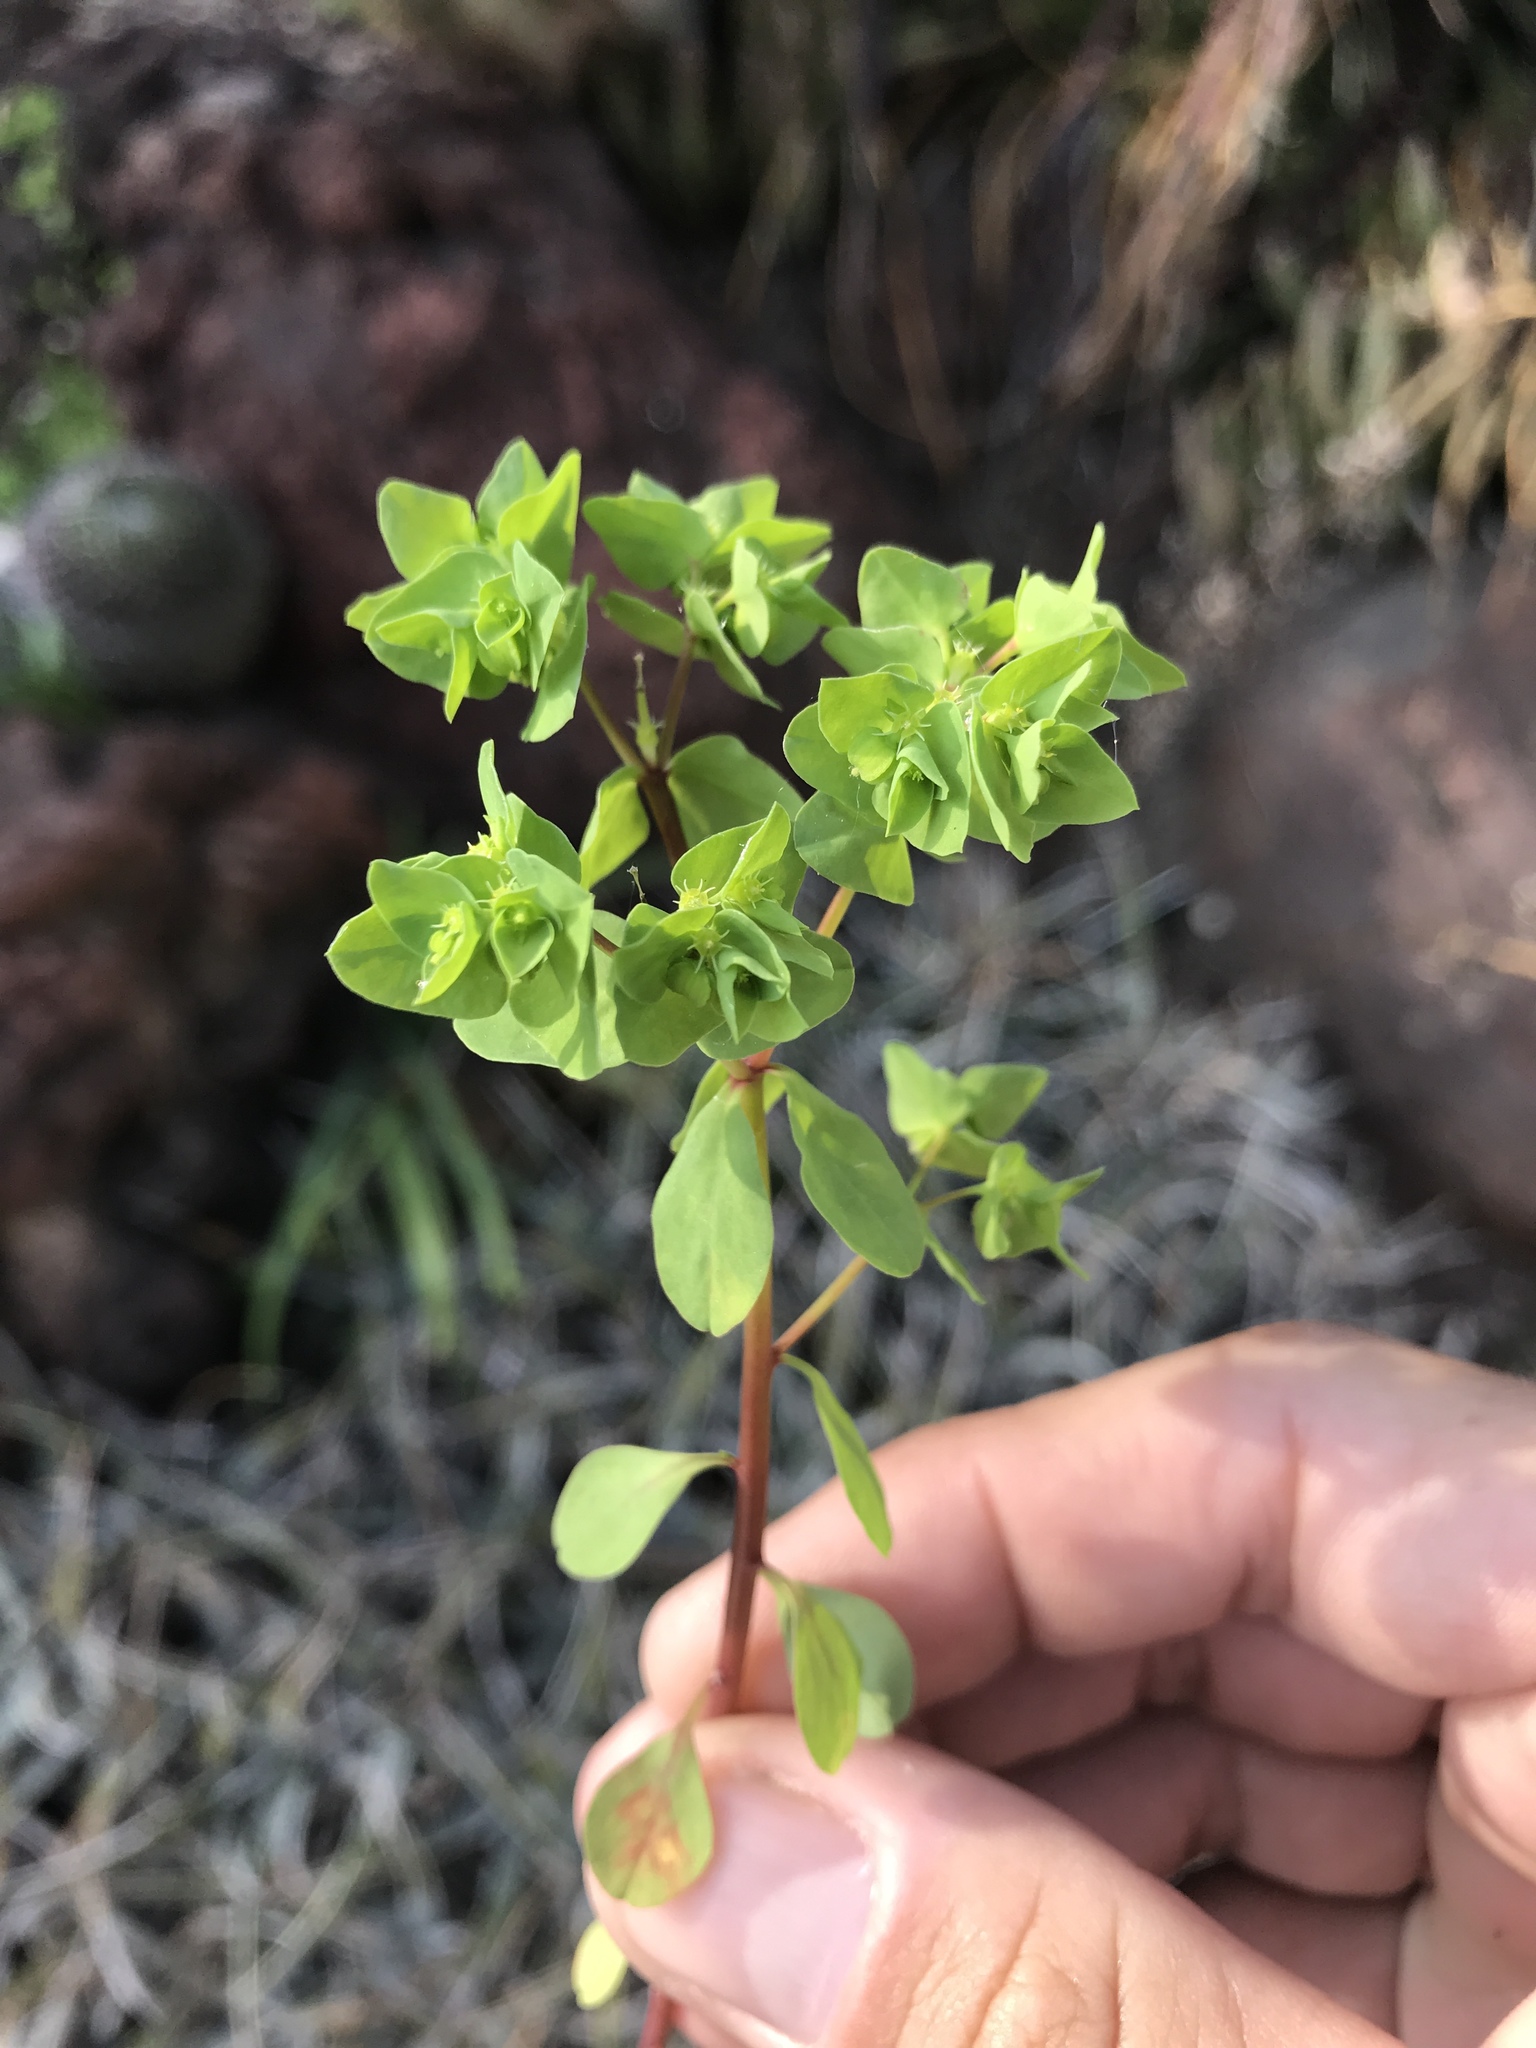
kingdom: Plantae
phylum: Tracheophyta
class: Magnoliopsida
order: Malpighiales
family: Euphorbiaceae
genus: Euphorbia
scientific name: Euphorbia peplus
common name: Petty spurge
